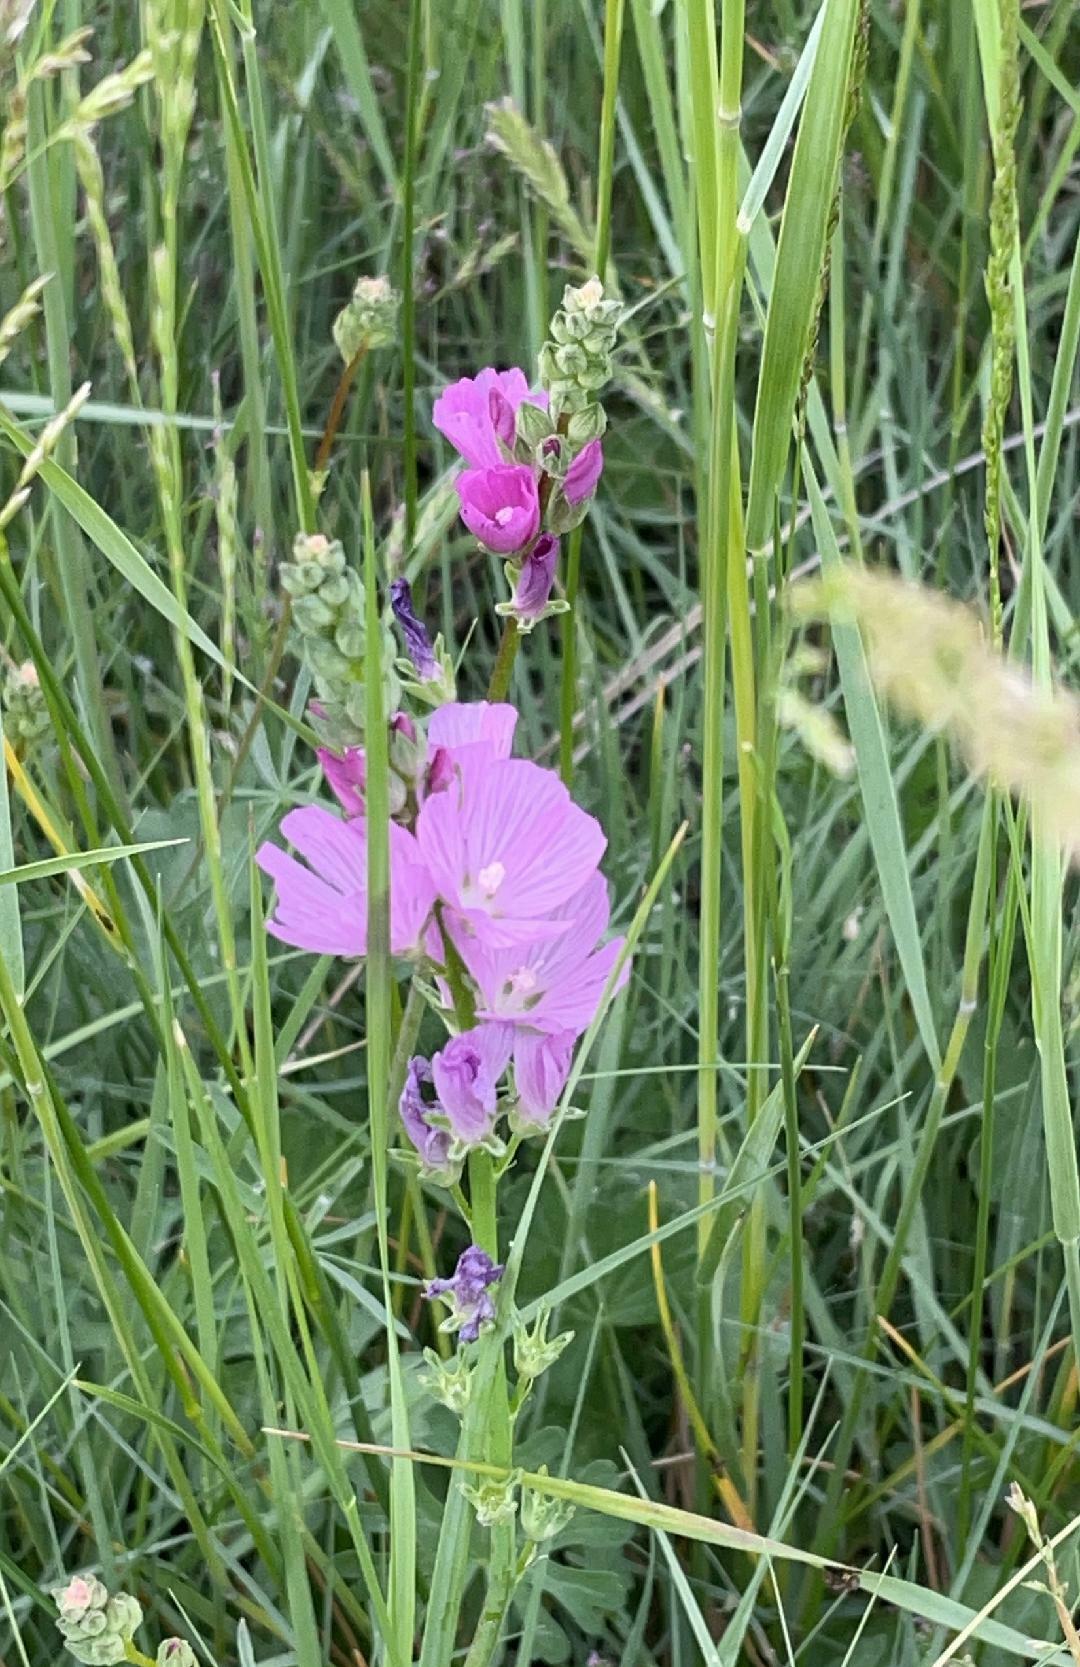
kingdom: Plantae
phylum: Tracheophyta
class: Magnoliopsida
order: Malvales
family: Malvaceae
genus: Sidalcea
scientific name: Sidalcea oregana
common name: Oregon checker-mallow
